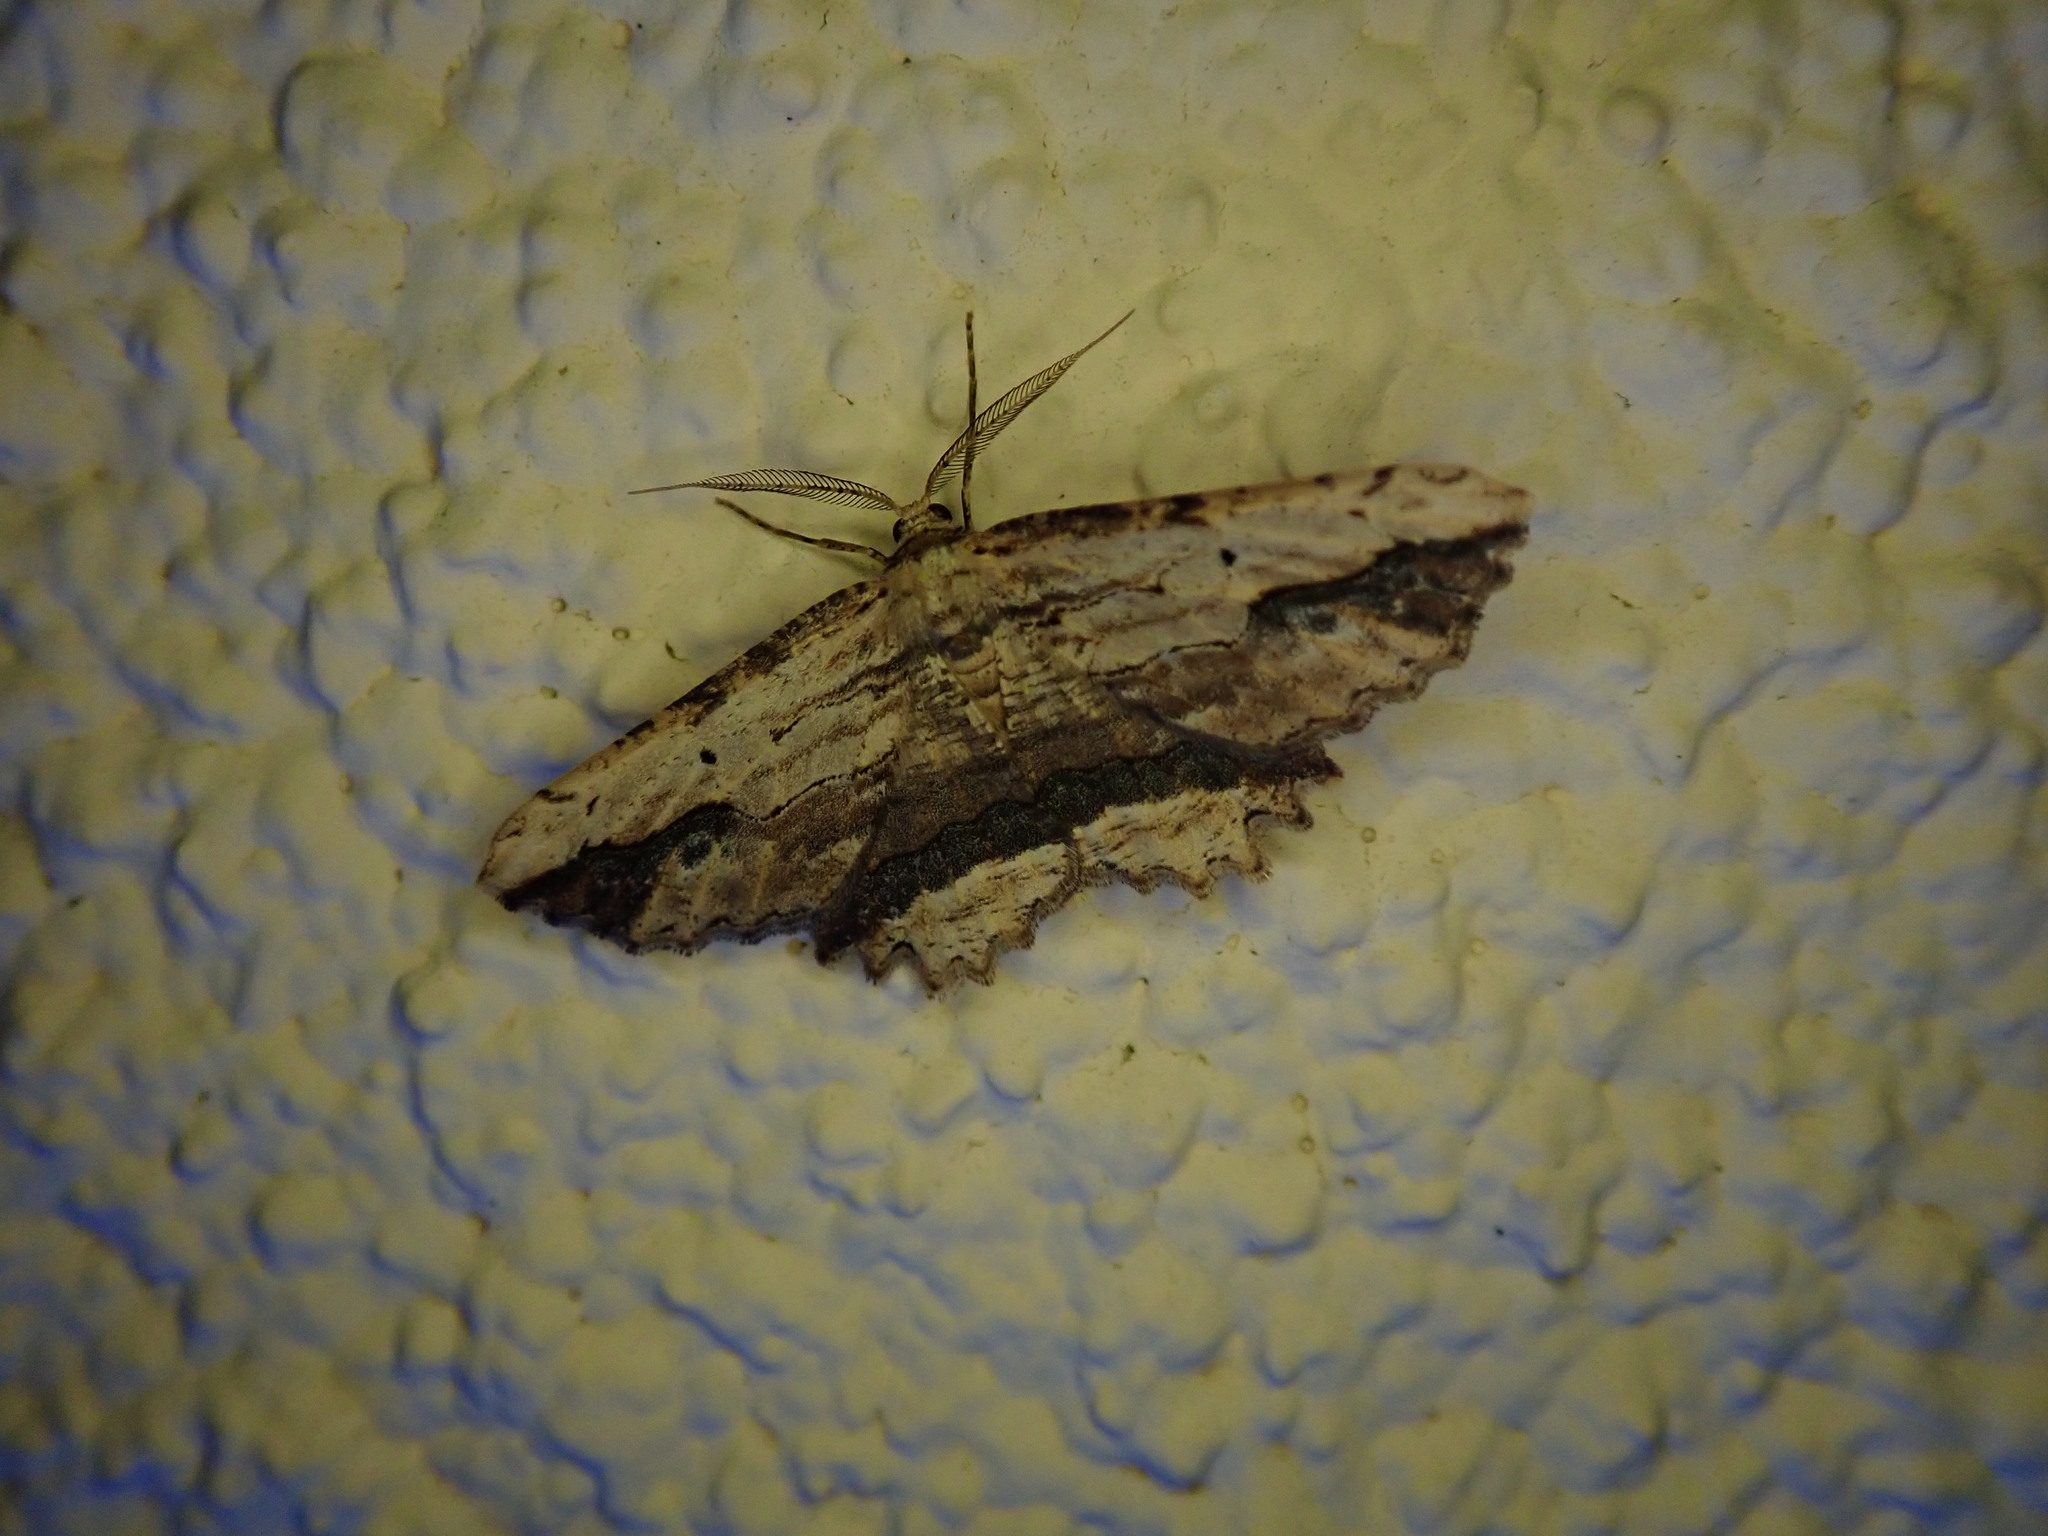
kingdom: Animalia
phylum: Arthropoda
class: Insecta
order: Lepidoptera
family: Geometridae
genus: Menophra
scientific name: Menophra abruptaria
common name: Waved umber
